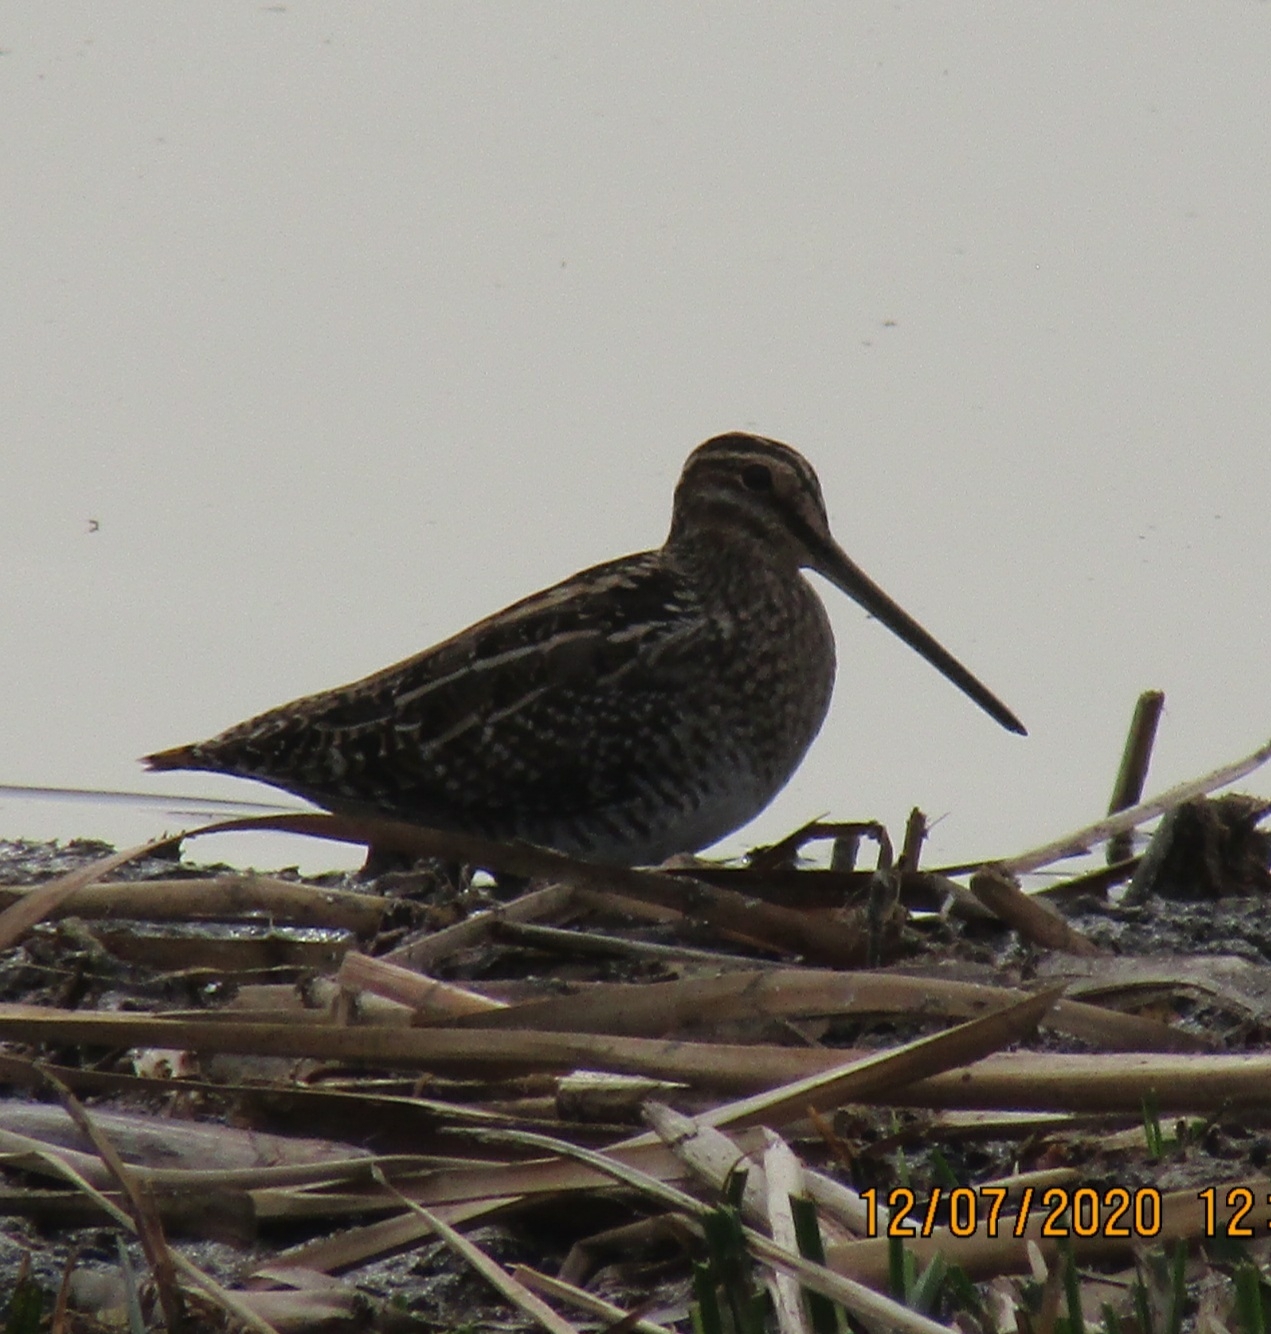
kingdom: Animalia
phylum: Chordata
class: Aves
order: Charadriiformes
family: Scolopacidae
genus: Gallinago
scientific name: Gallinago delicata
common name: Wilson's snipe
